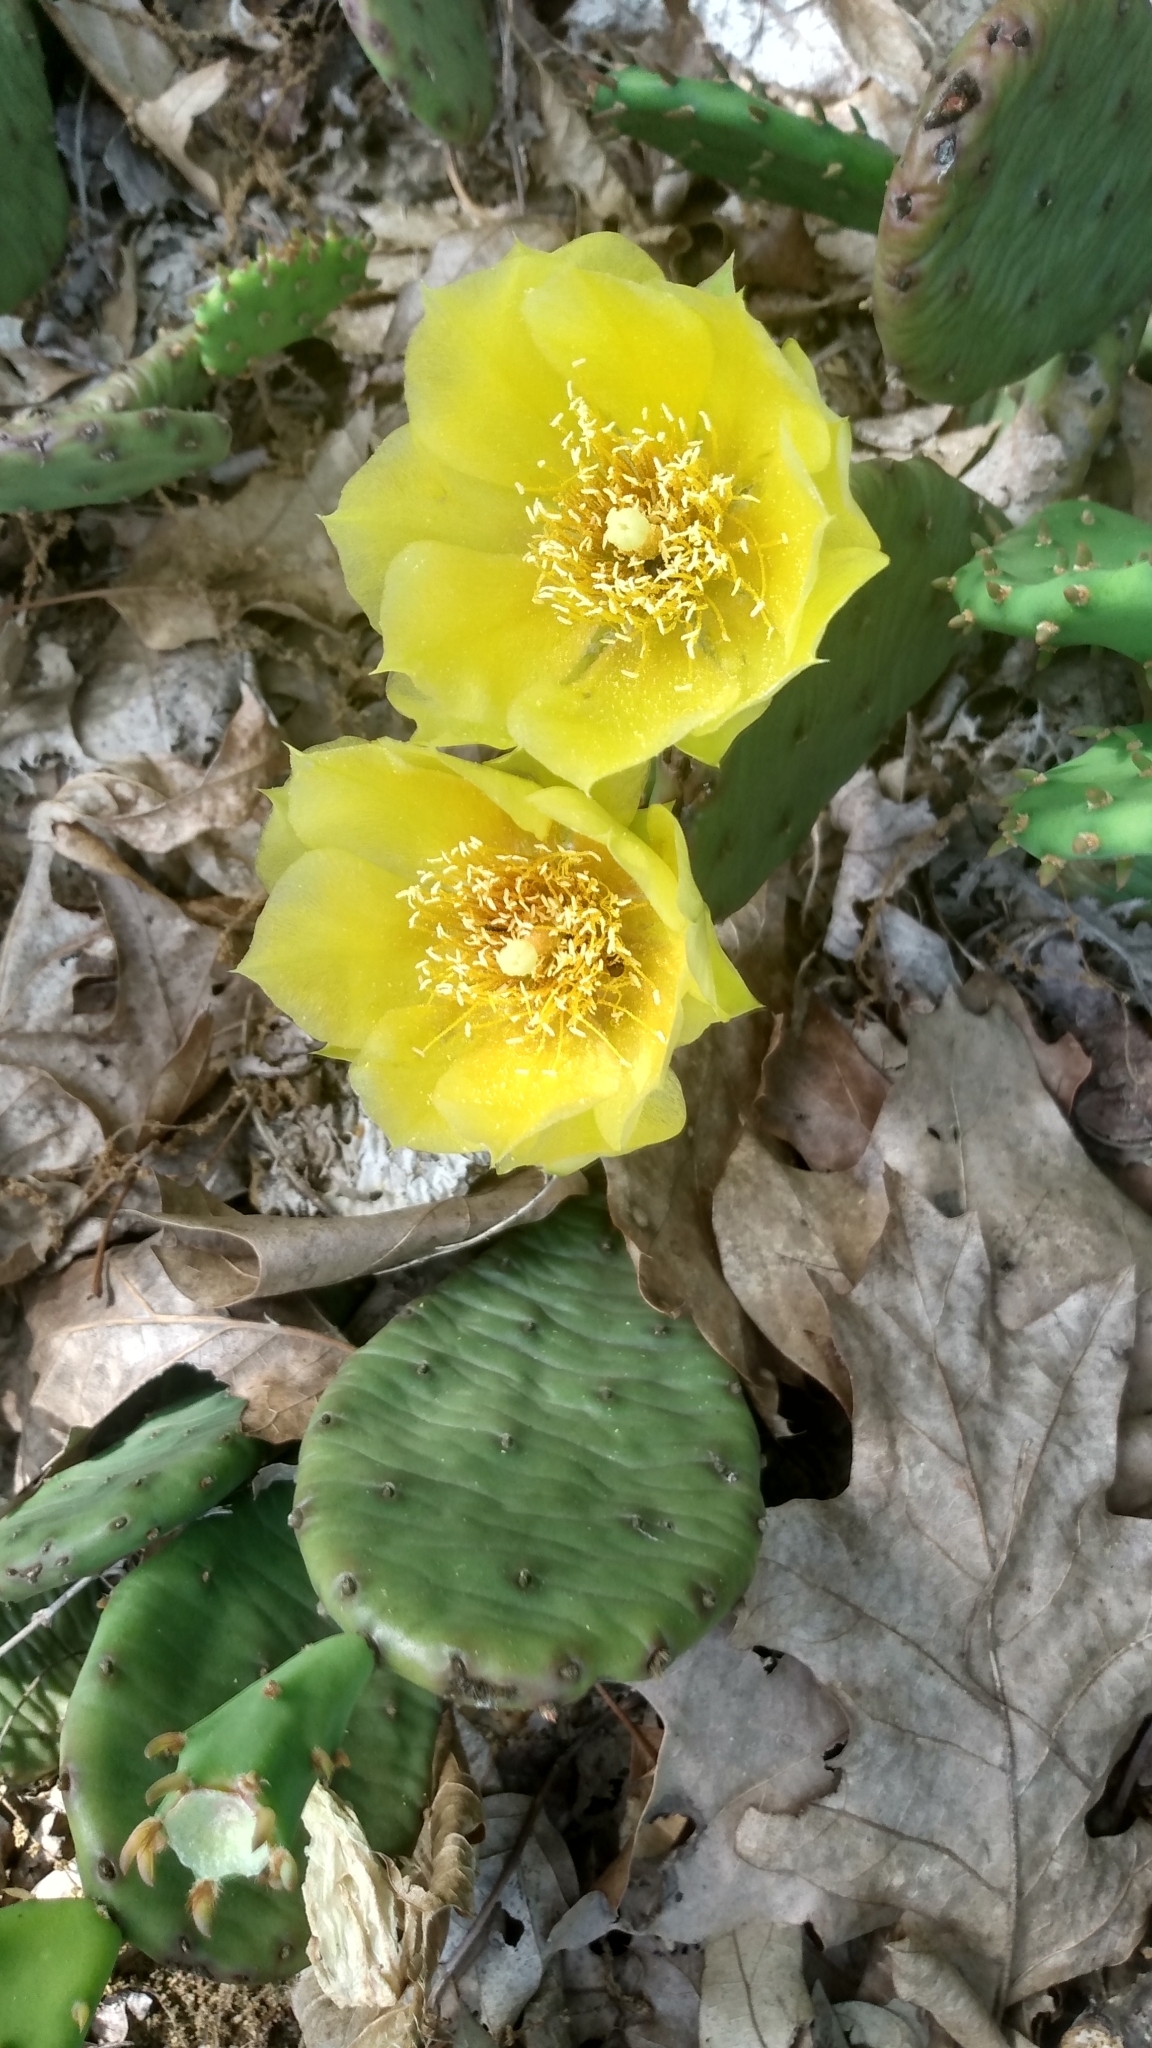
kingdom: Plantae
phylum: Tracheophyta
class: Magnoliopsida
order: Caryophyllales
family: Cactaceae
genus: Opuntia
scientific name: Opuntia humifusa
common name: Eastern prickly-pear
